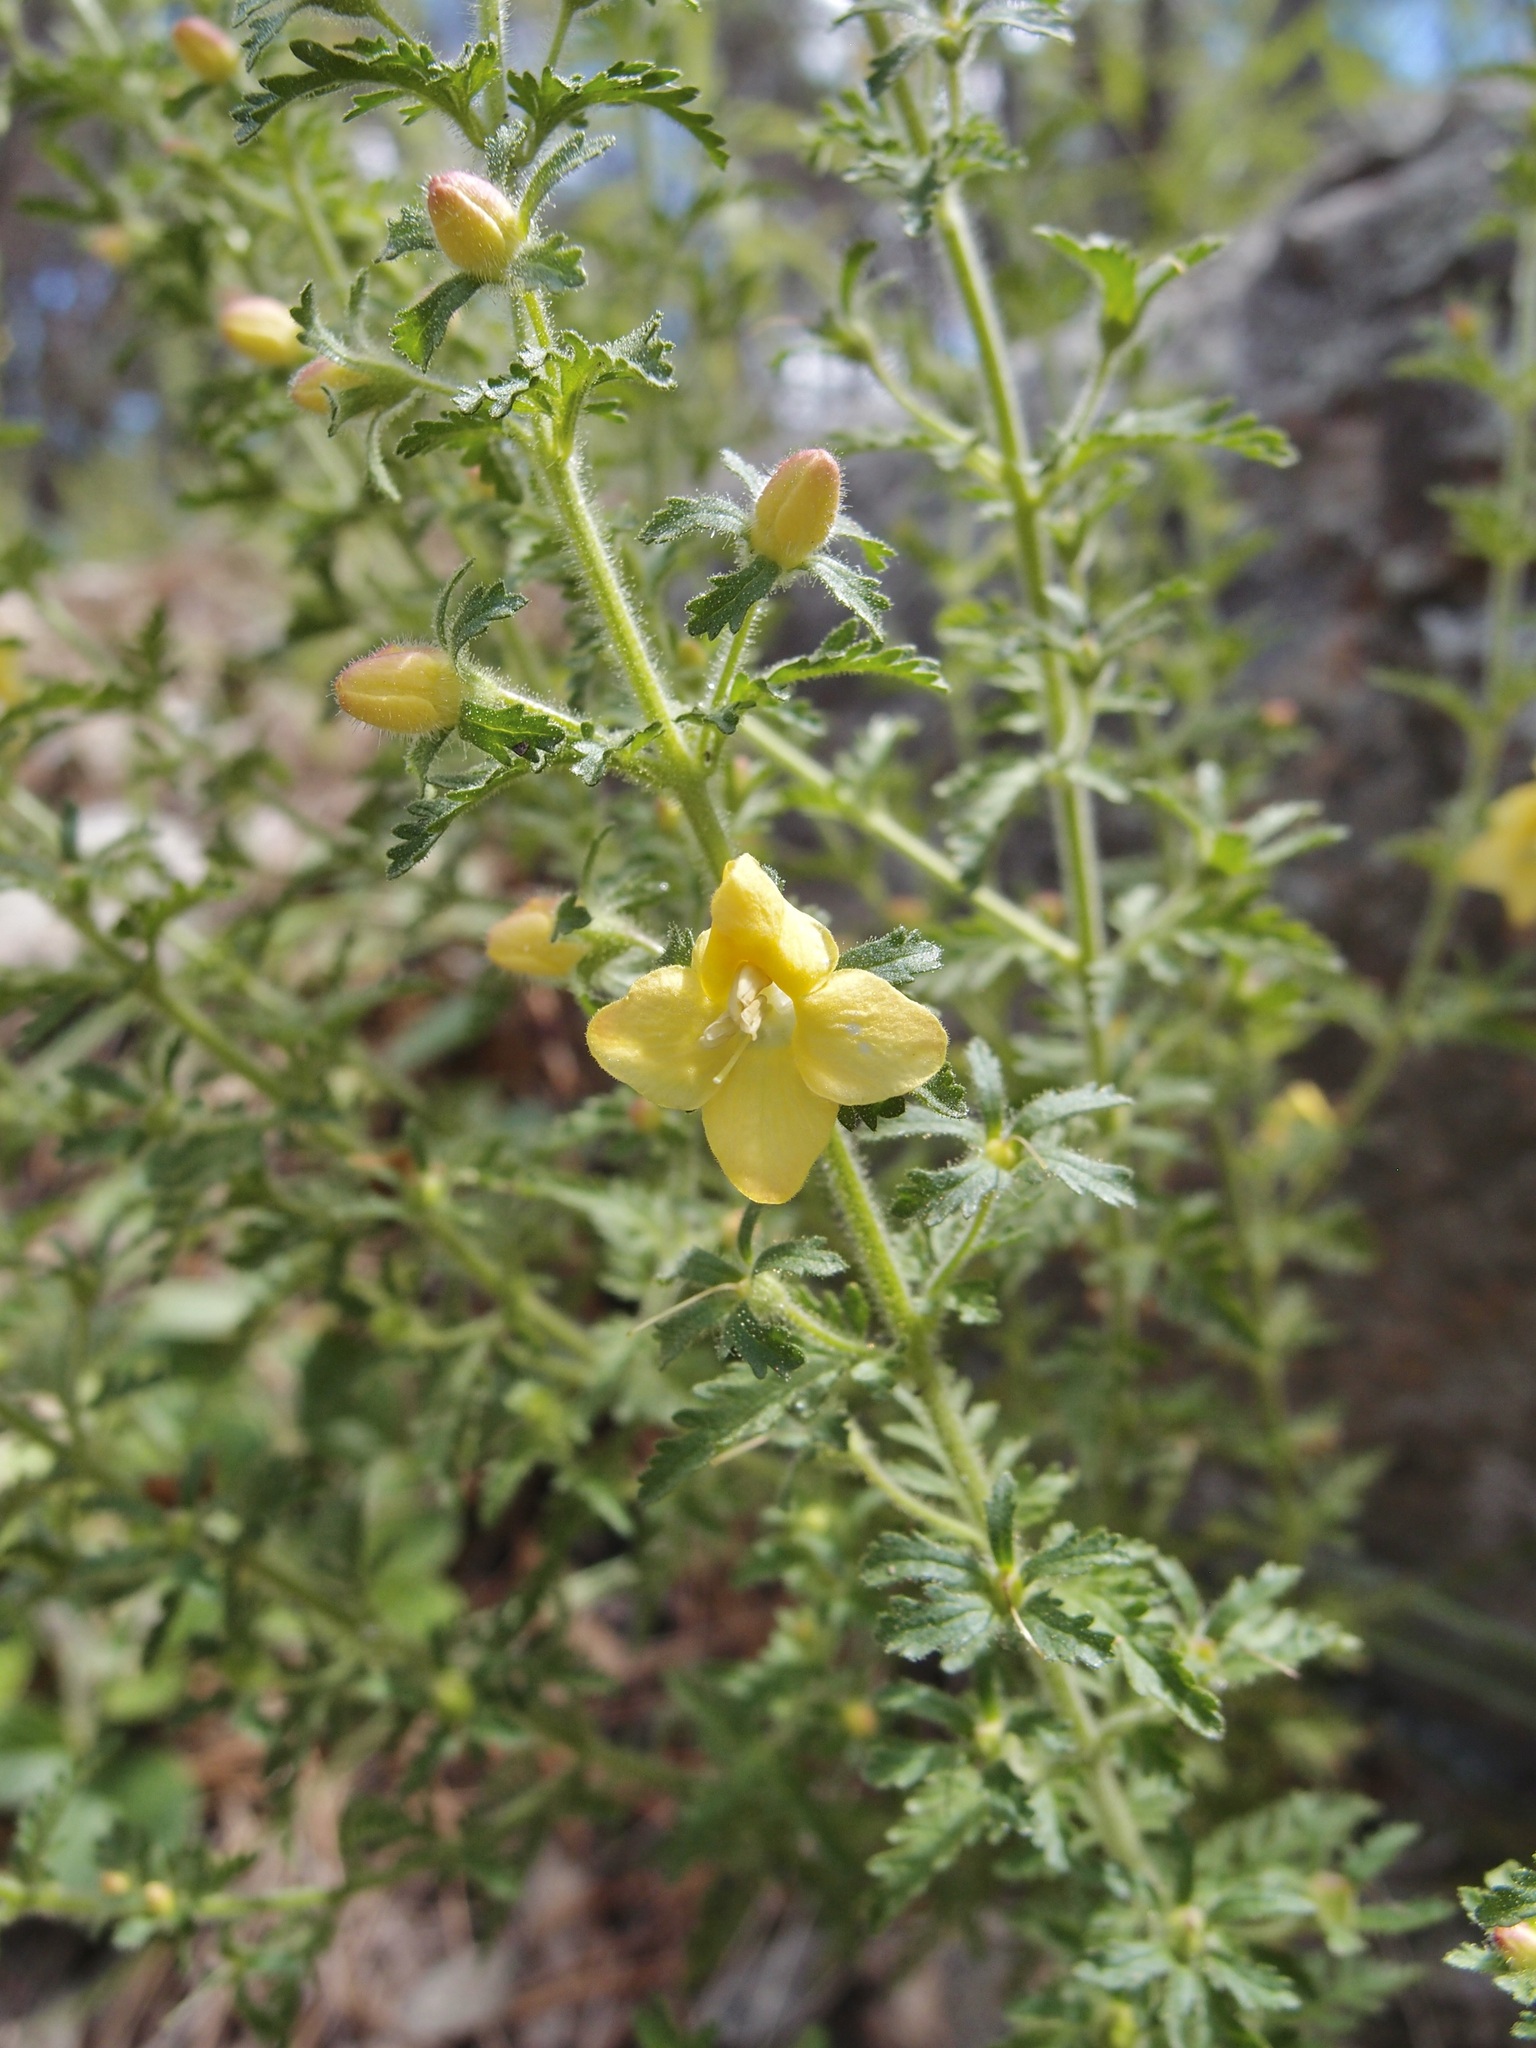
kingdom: Plantae
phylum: Tracheophyta
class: Magnoliopsida
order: Lamiales
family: Orobanchaceae
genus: Seymeria
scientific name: Seymeria bipinnatisecta
